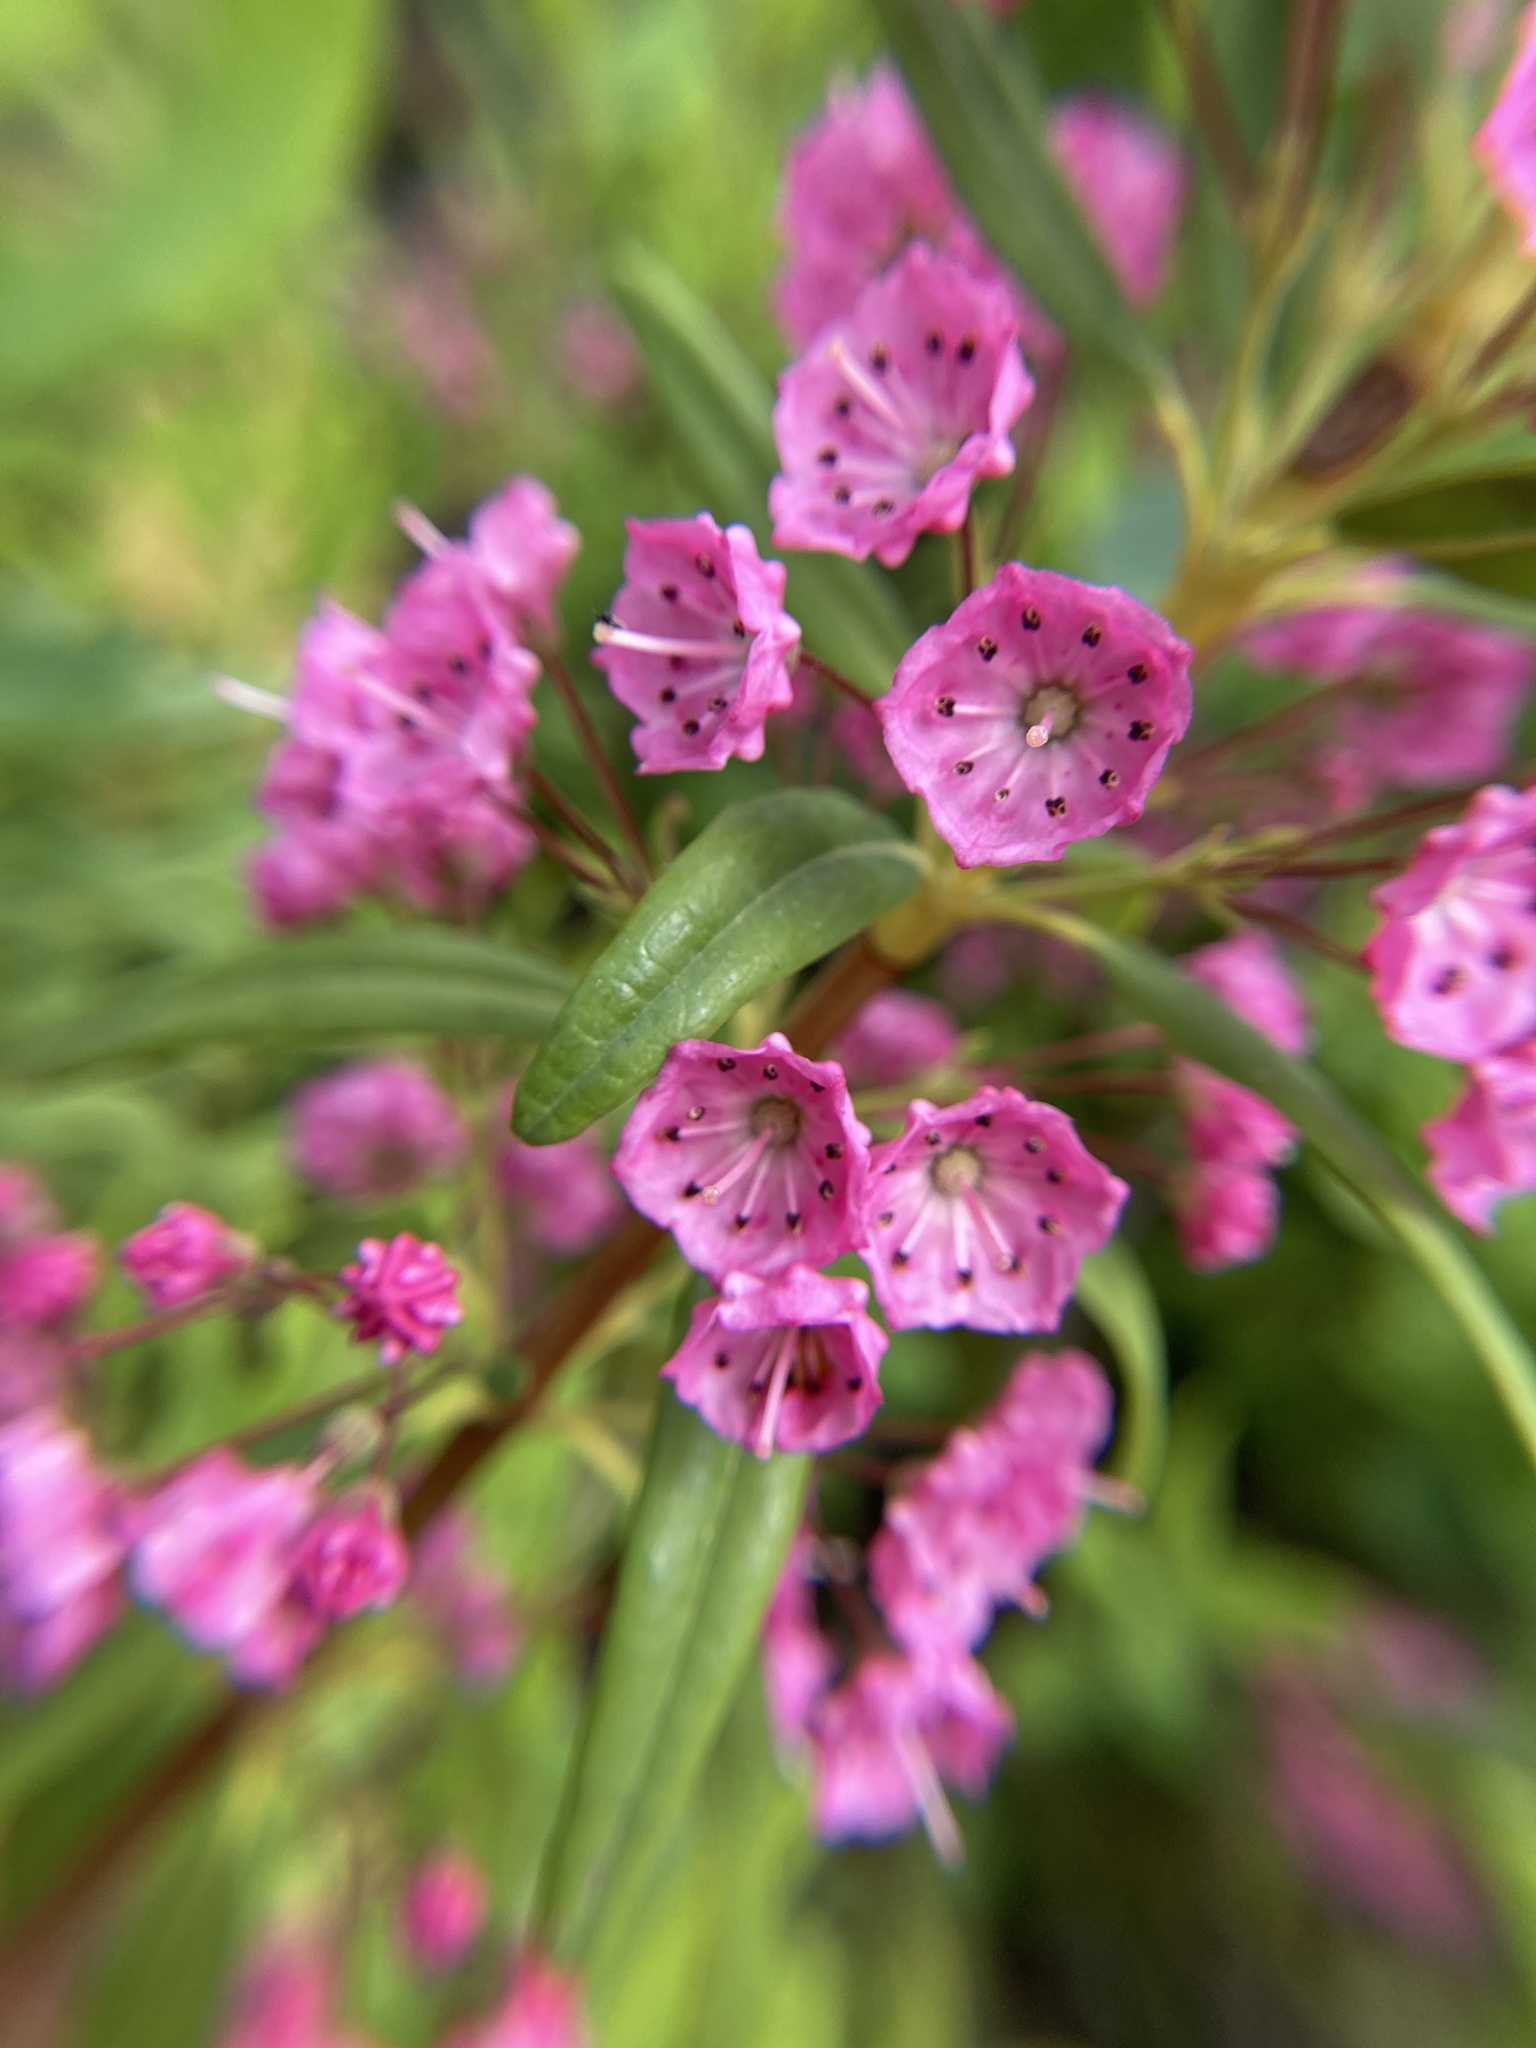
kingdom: Plantae
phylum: Tracheophyta
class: Magnoliopsida
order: Ericales
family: Ericaceae
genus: Kalmia
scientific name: Kalmia angustifolia
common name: Sheep-laurel
